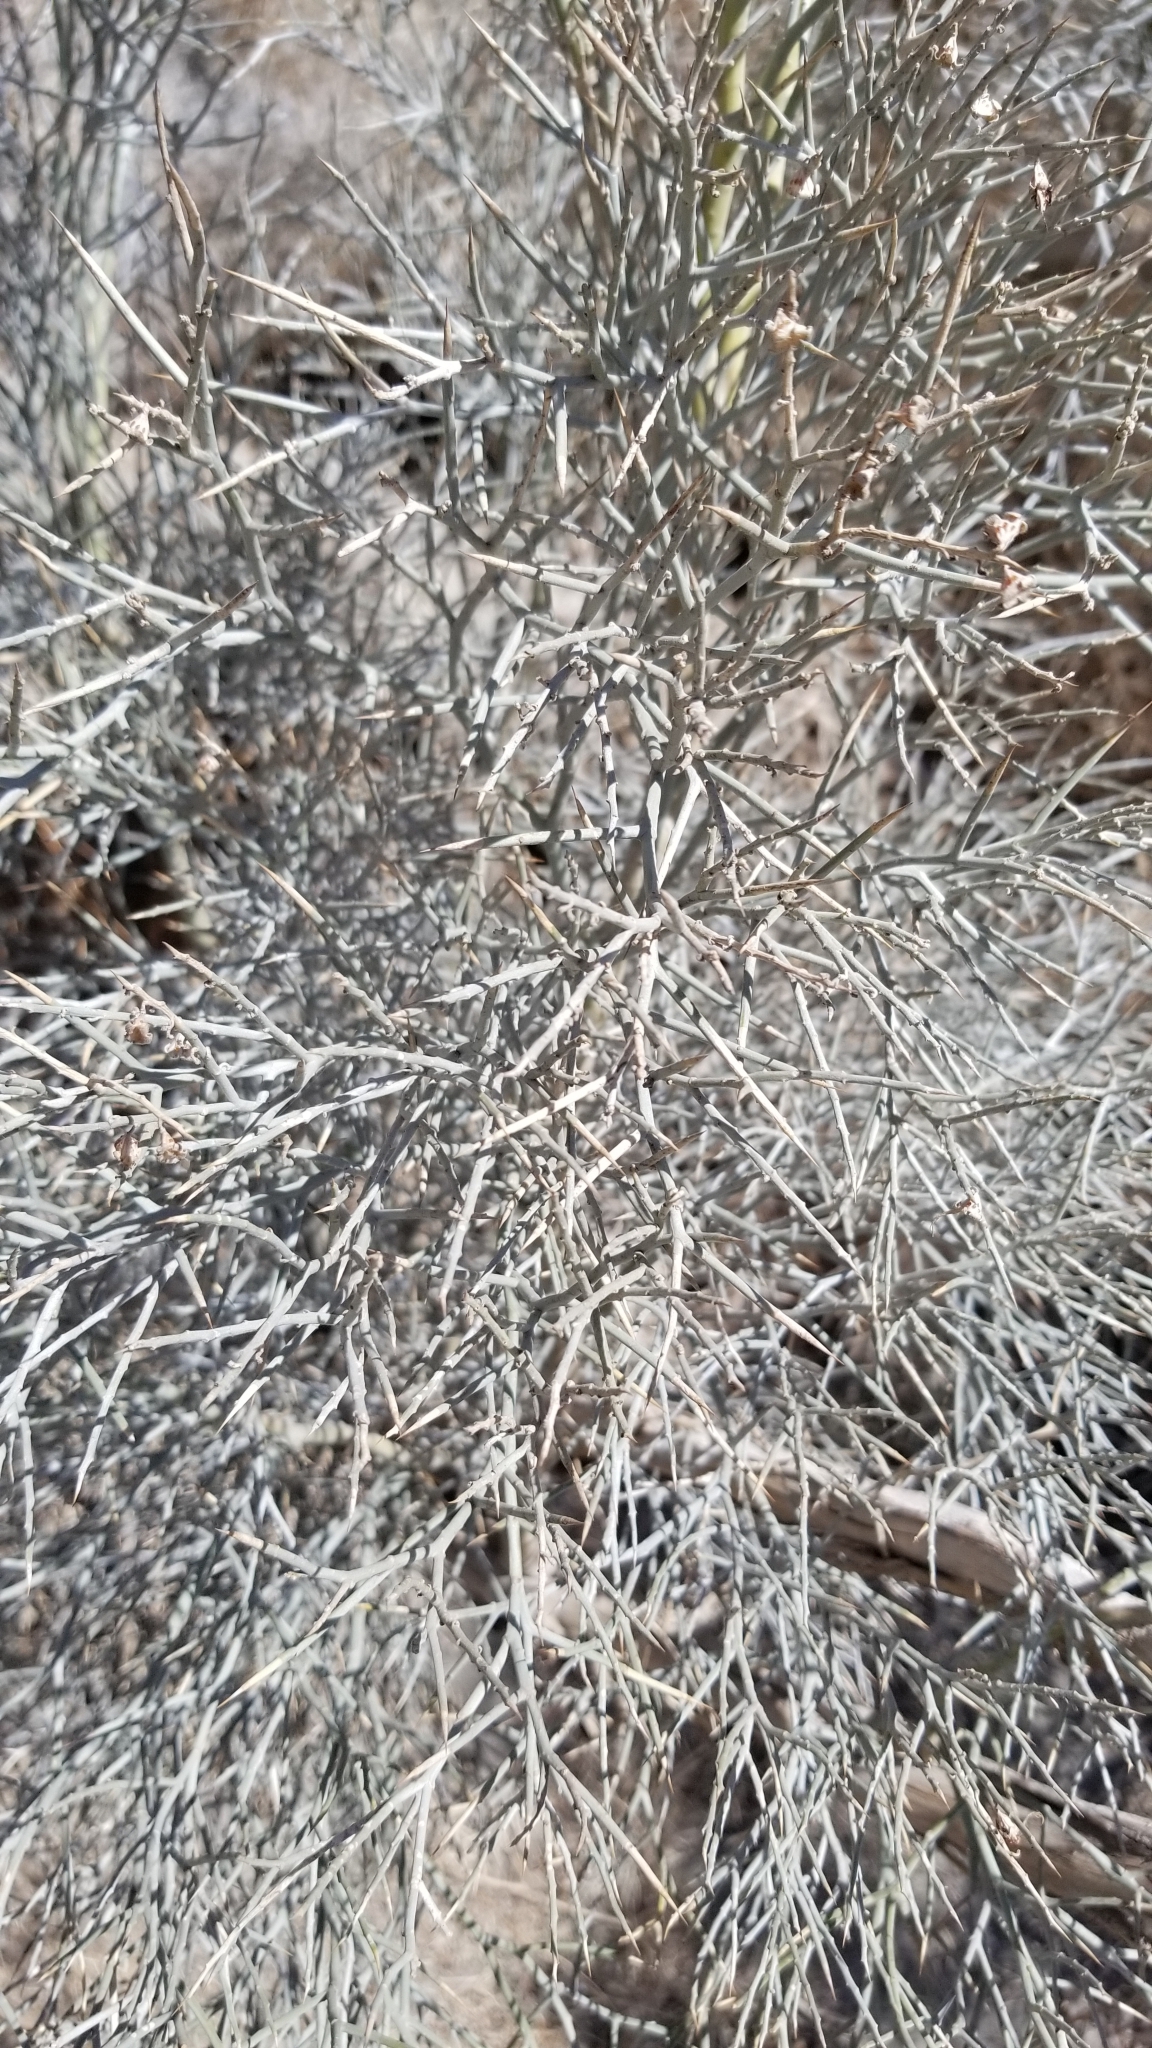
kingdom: Plantae
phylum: Tracheophyta
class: Magnoliopsida
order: Fabales
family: Fabaceae
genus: Psorothamnus
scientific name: Psorothamnus spinosus
